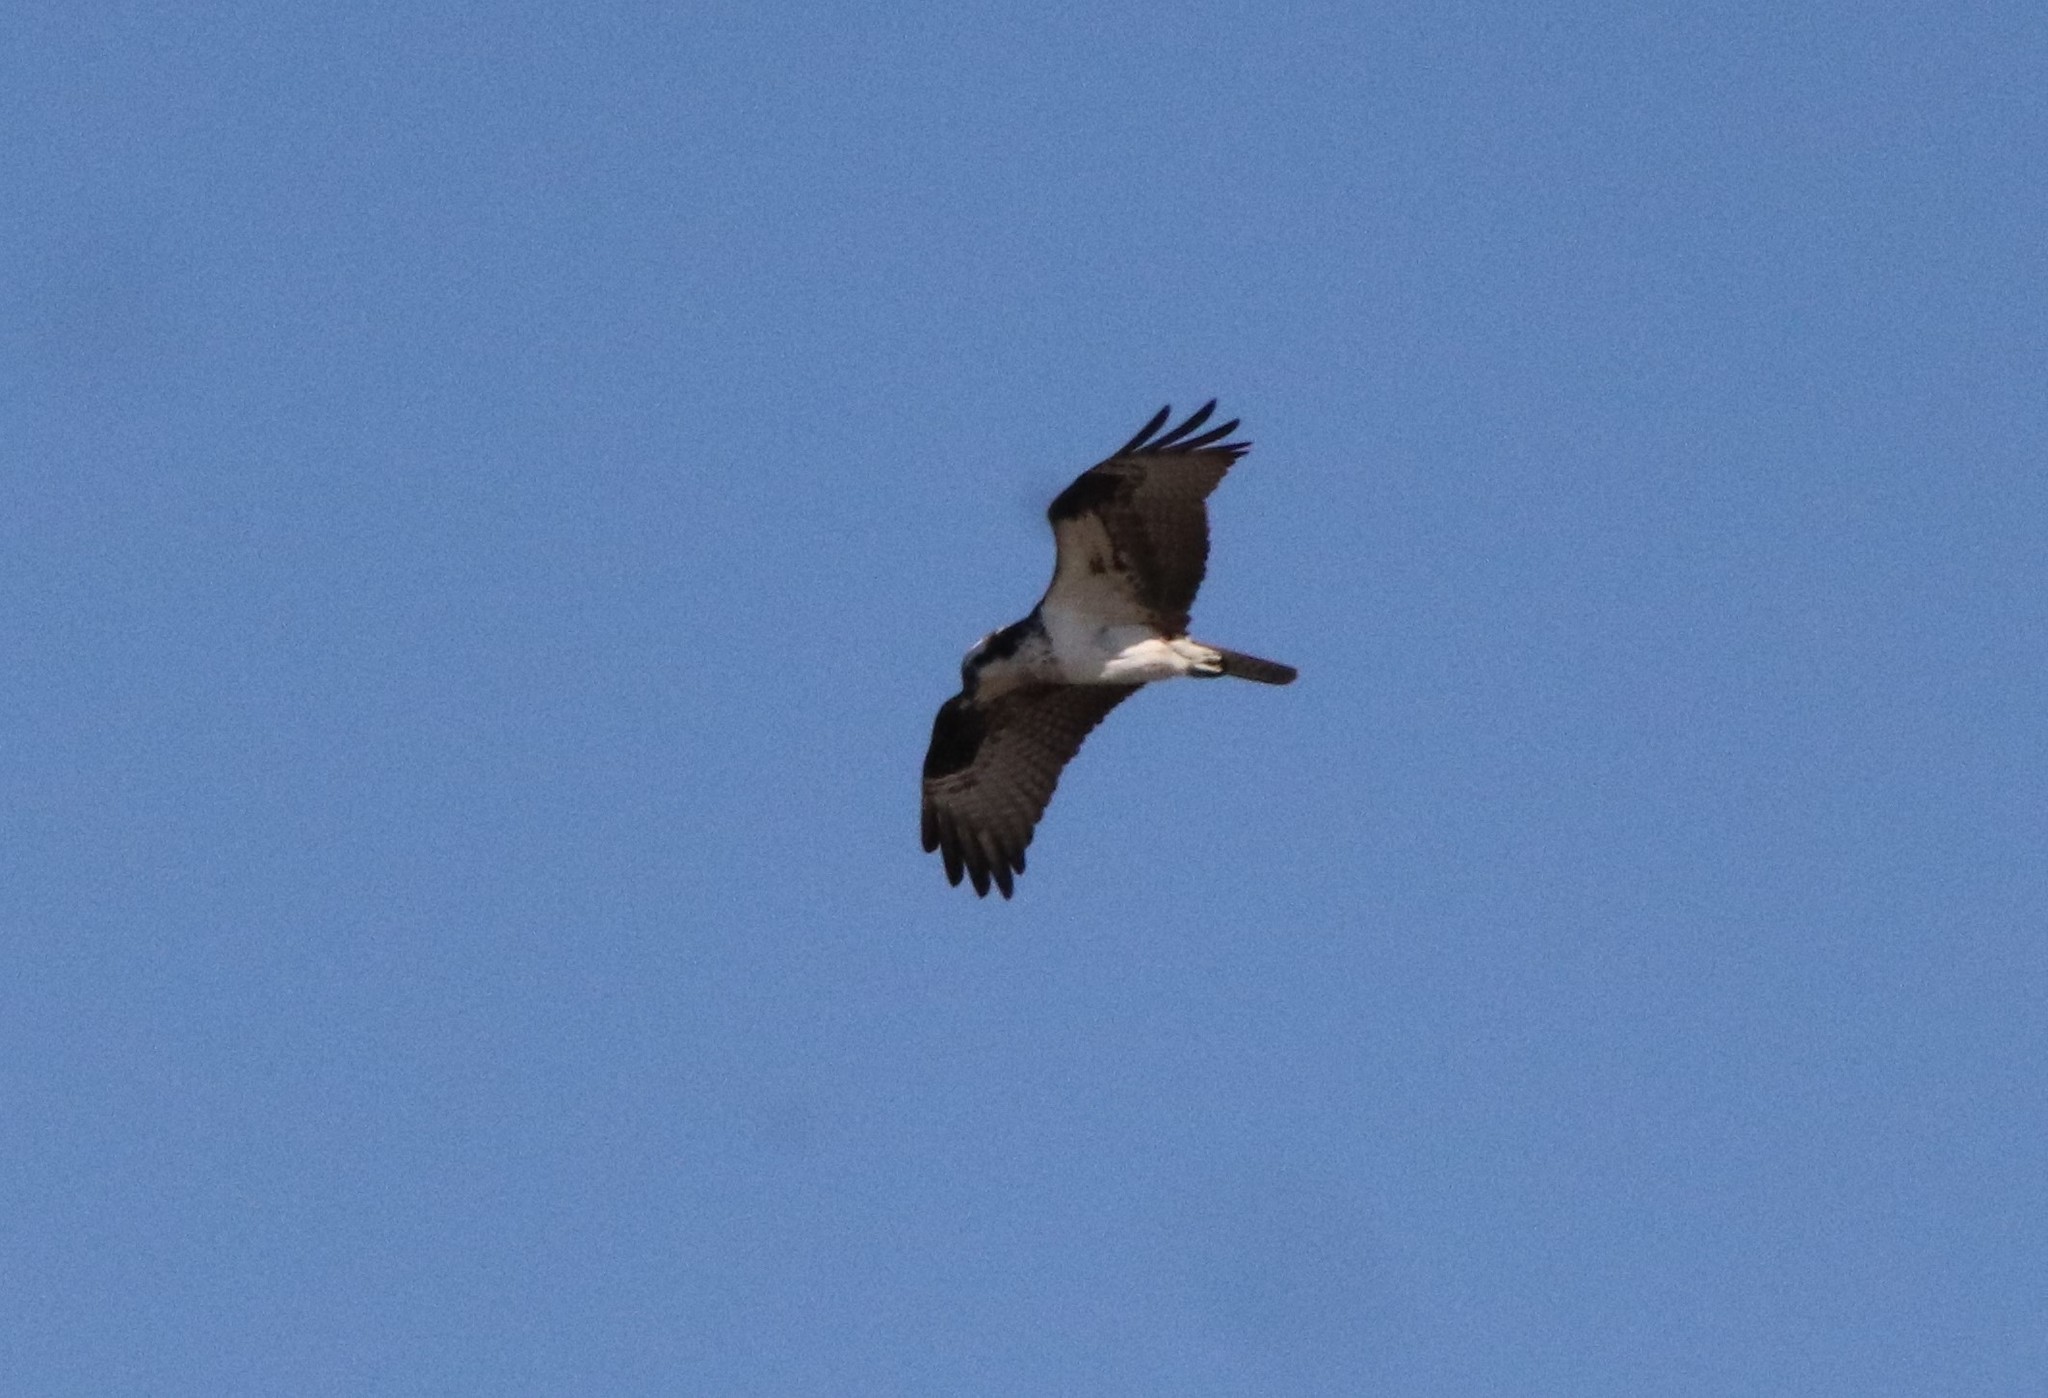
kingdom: Animalia
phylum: Chordata
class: Aves
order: Accipitriformes
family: Pandionidae
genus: Pandion
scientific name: Pandion haliaetus
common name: Osprey
